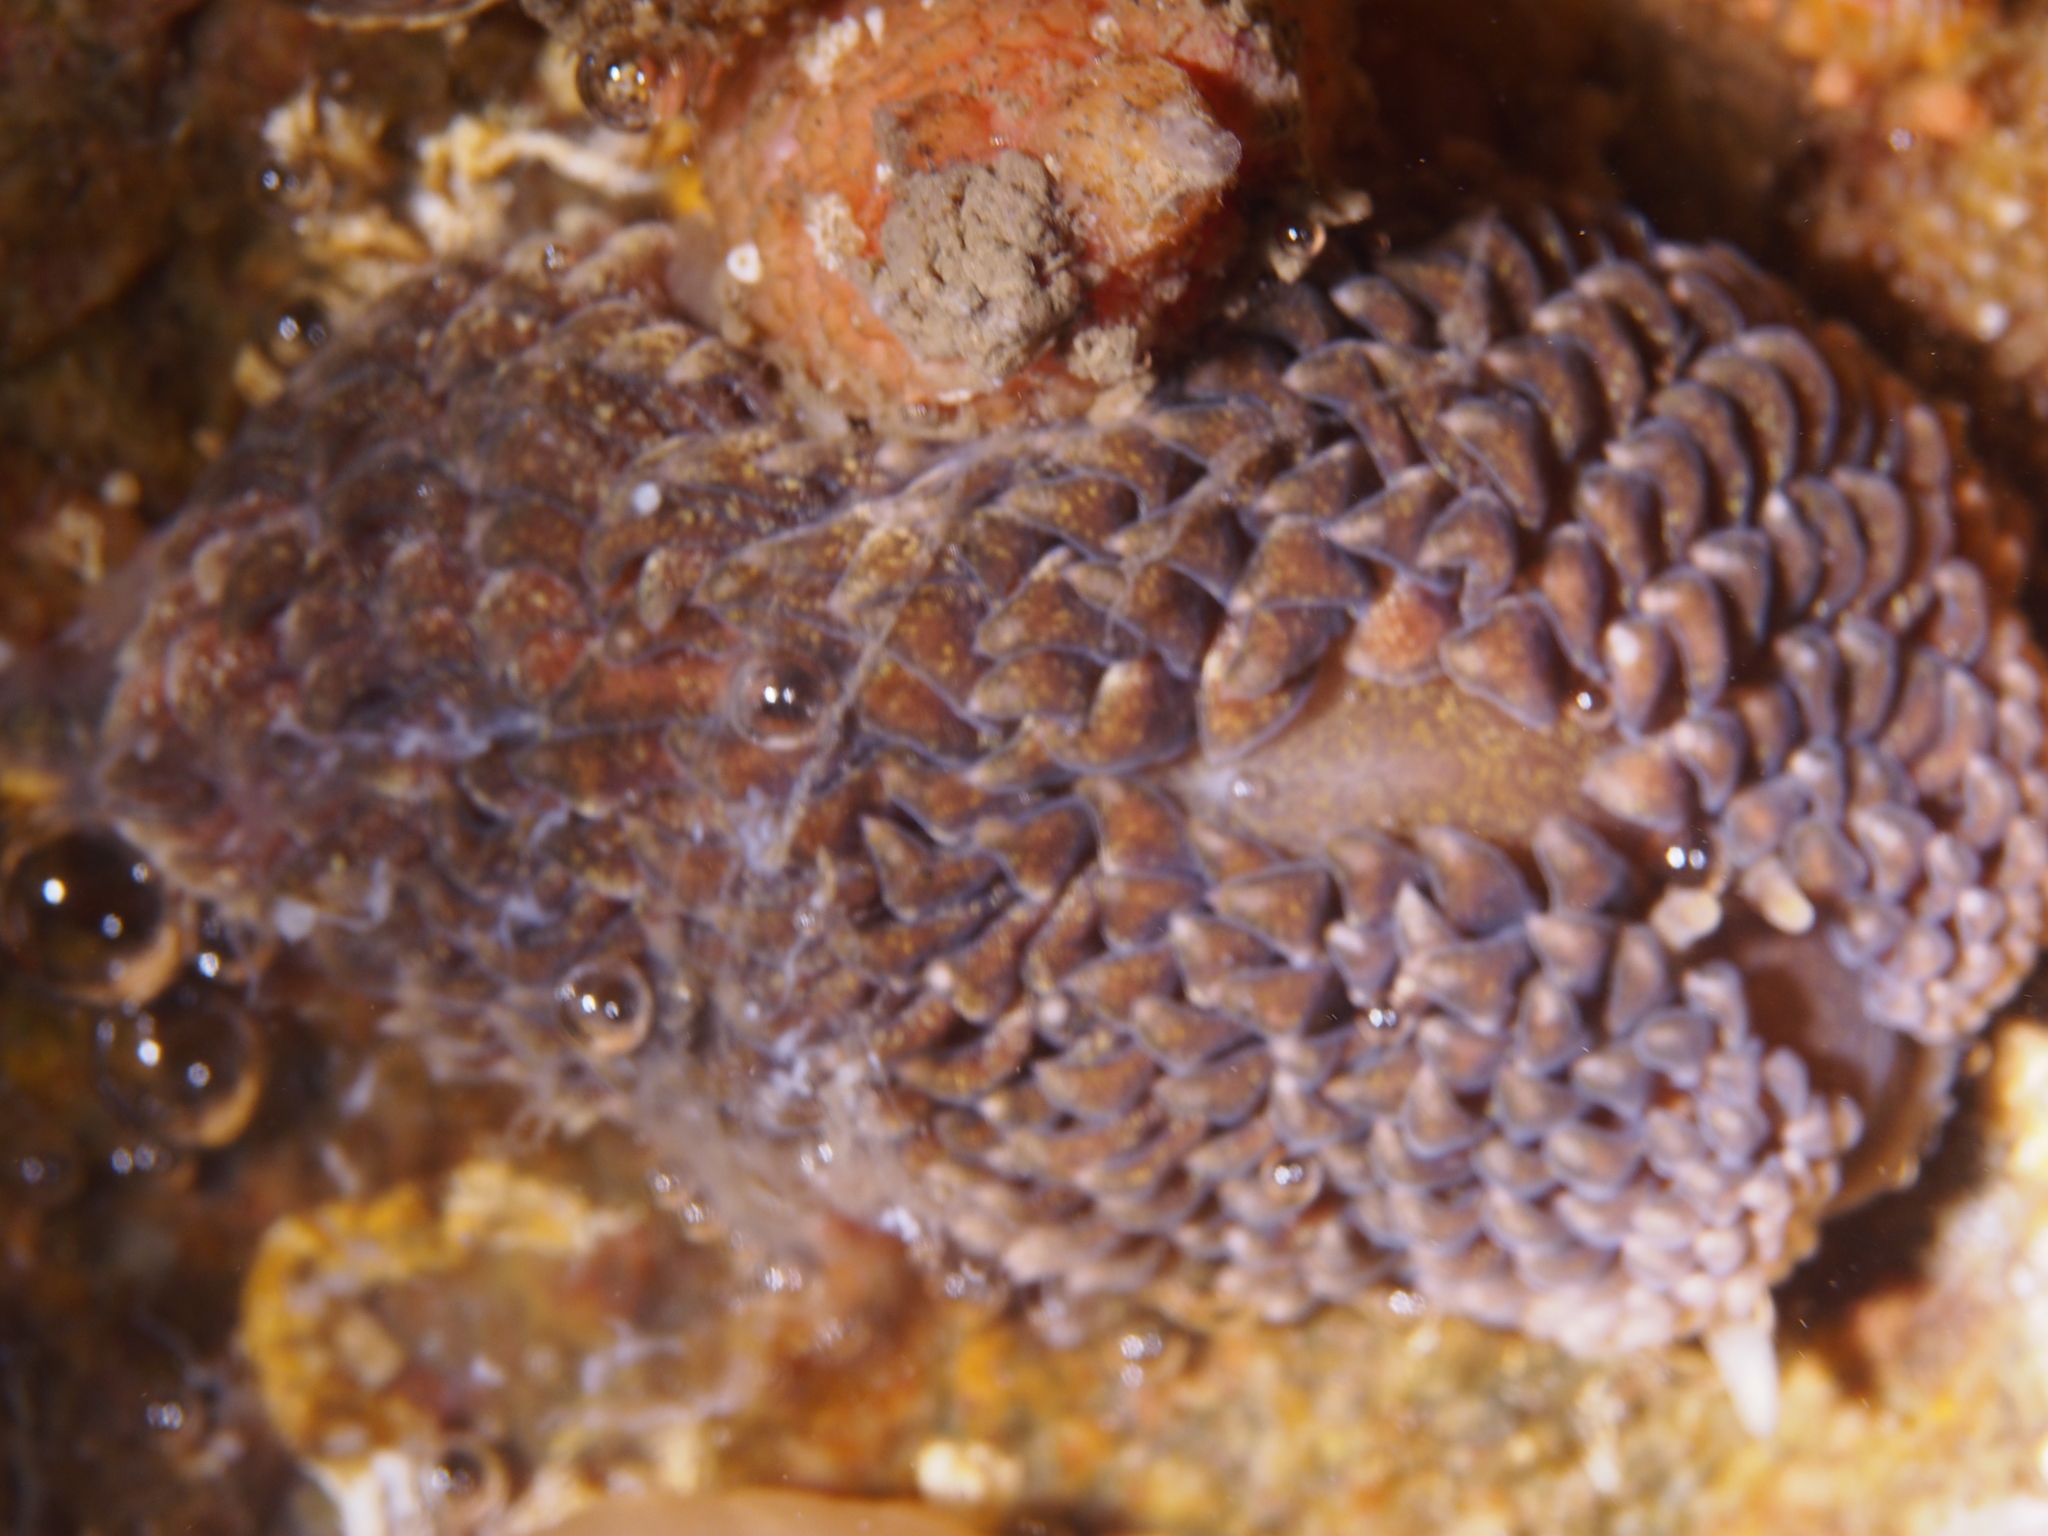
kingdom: Animalia
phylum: Mollusca
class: Gastropoda
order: Nudibranchia
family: Aeolidiidae
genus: Aeolidia
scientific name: Aeolidia papillosa
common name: Common grey sea slug
